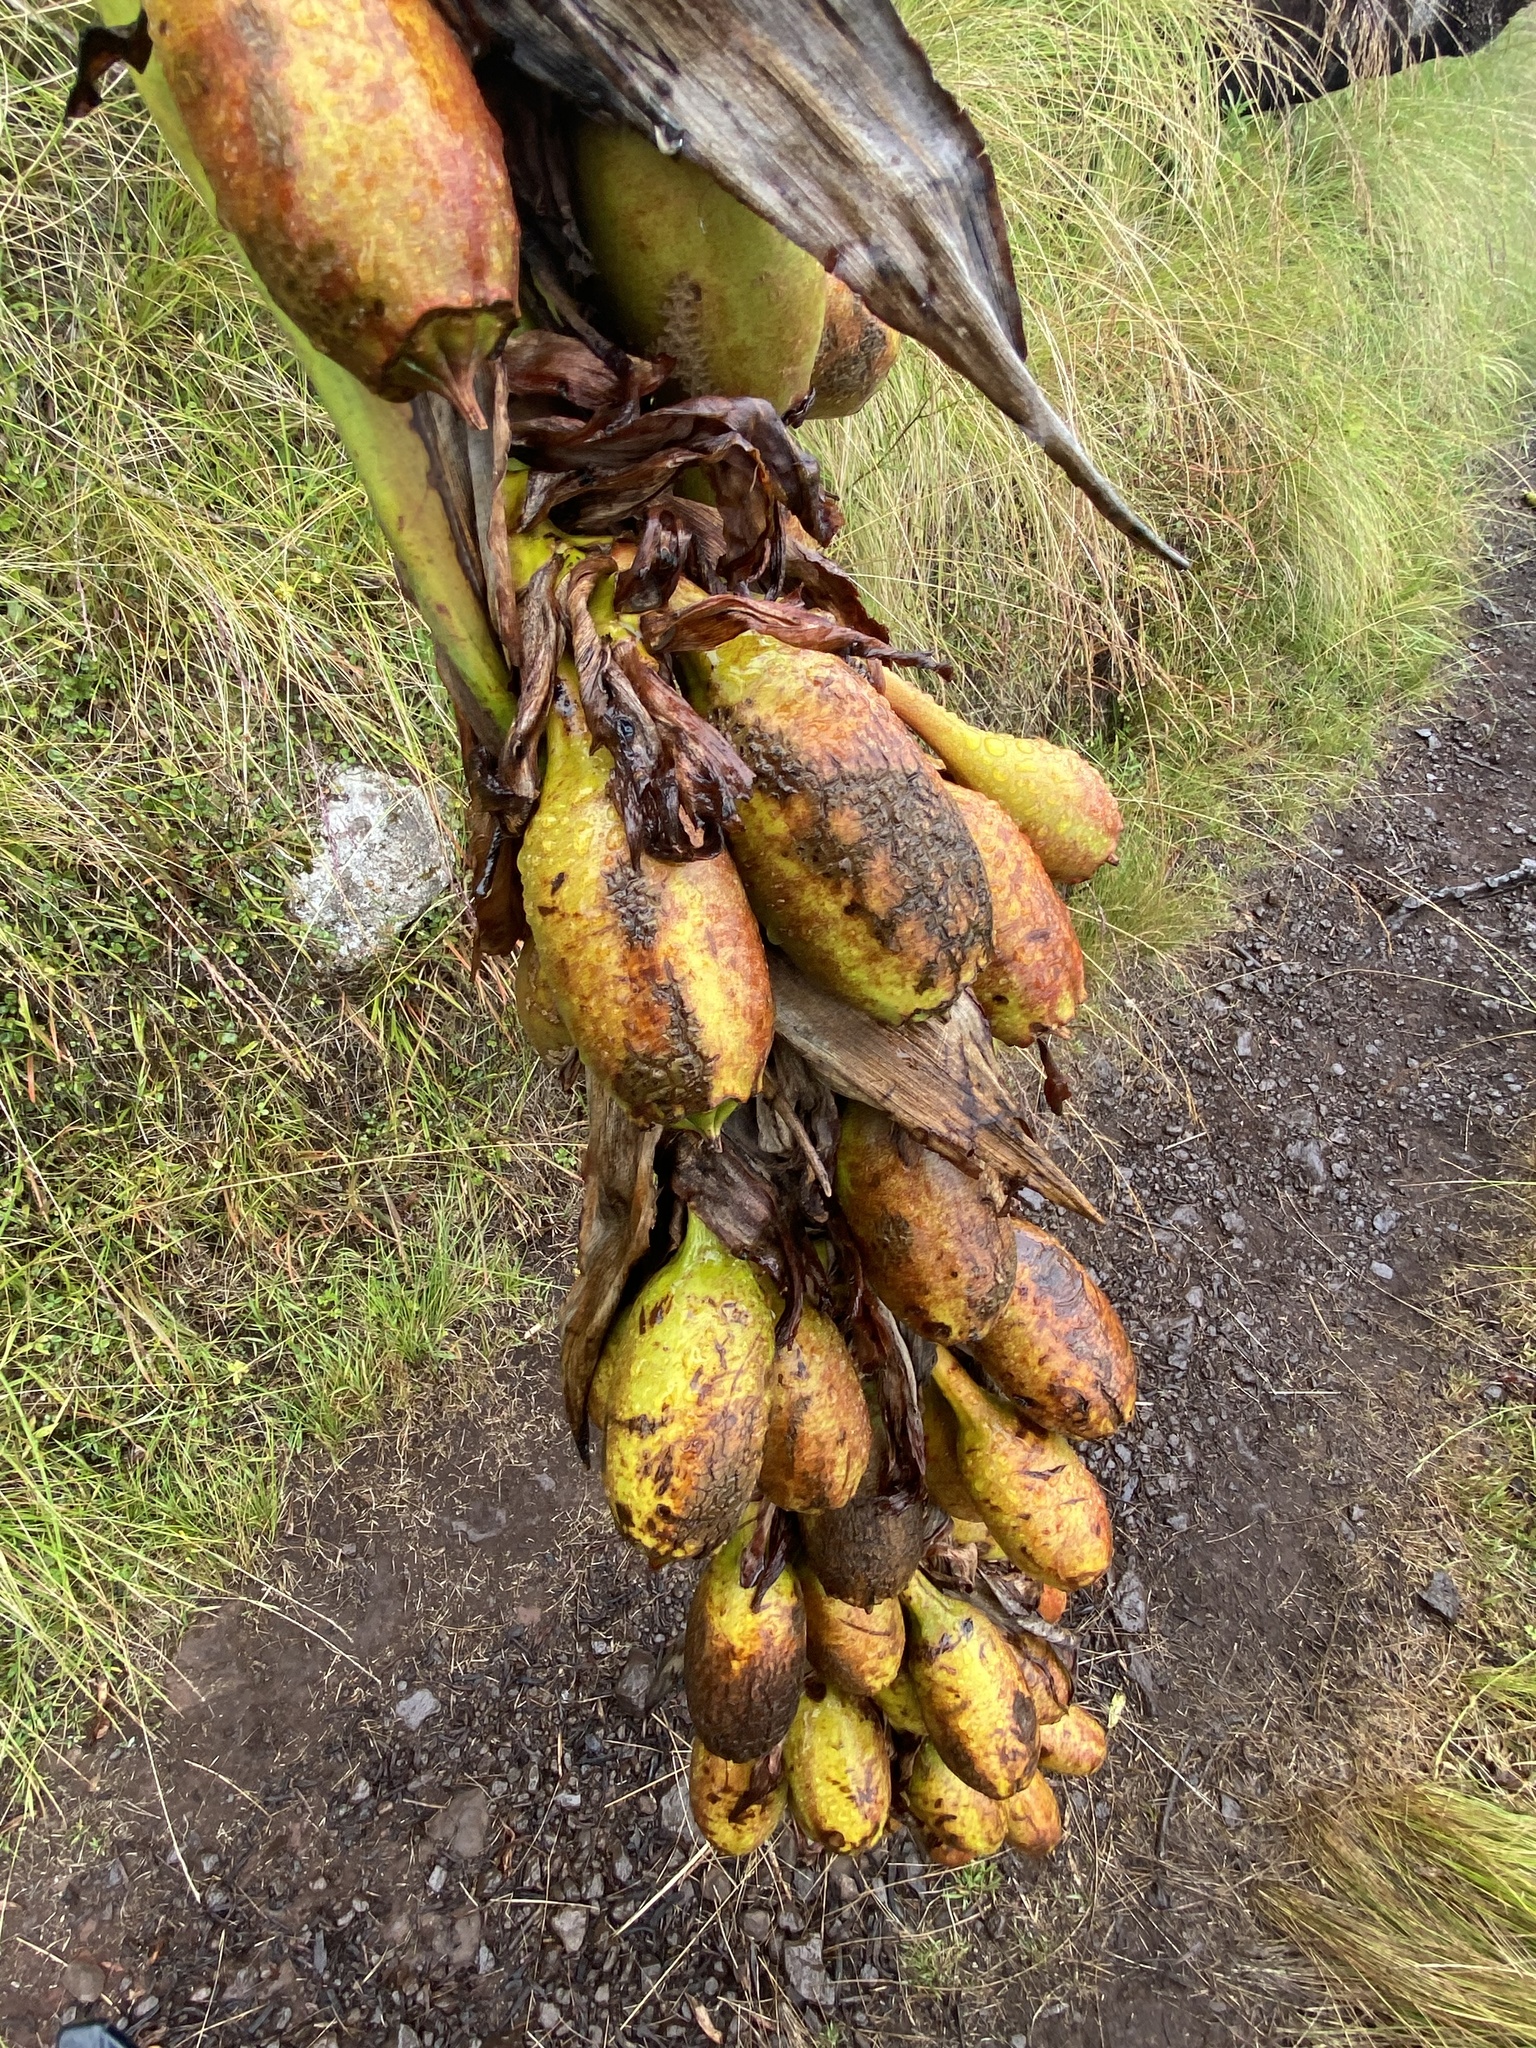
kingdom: Plantae
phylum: Tracheophyta
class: Liliopsida
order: Asparagales
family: Doryanthaceae
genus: Doryanthes
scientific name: Doryanthes palmeri
